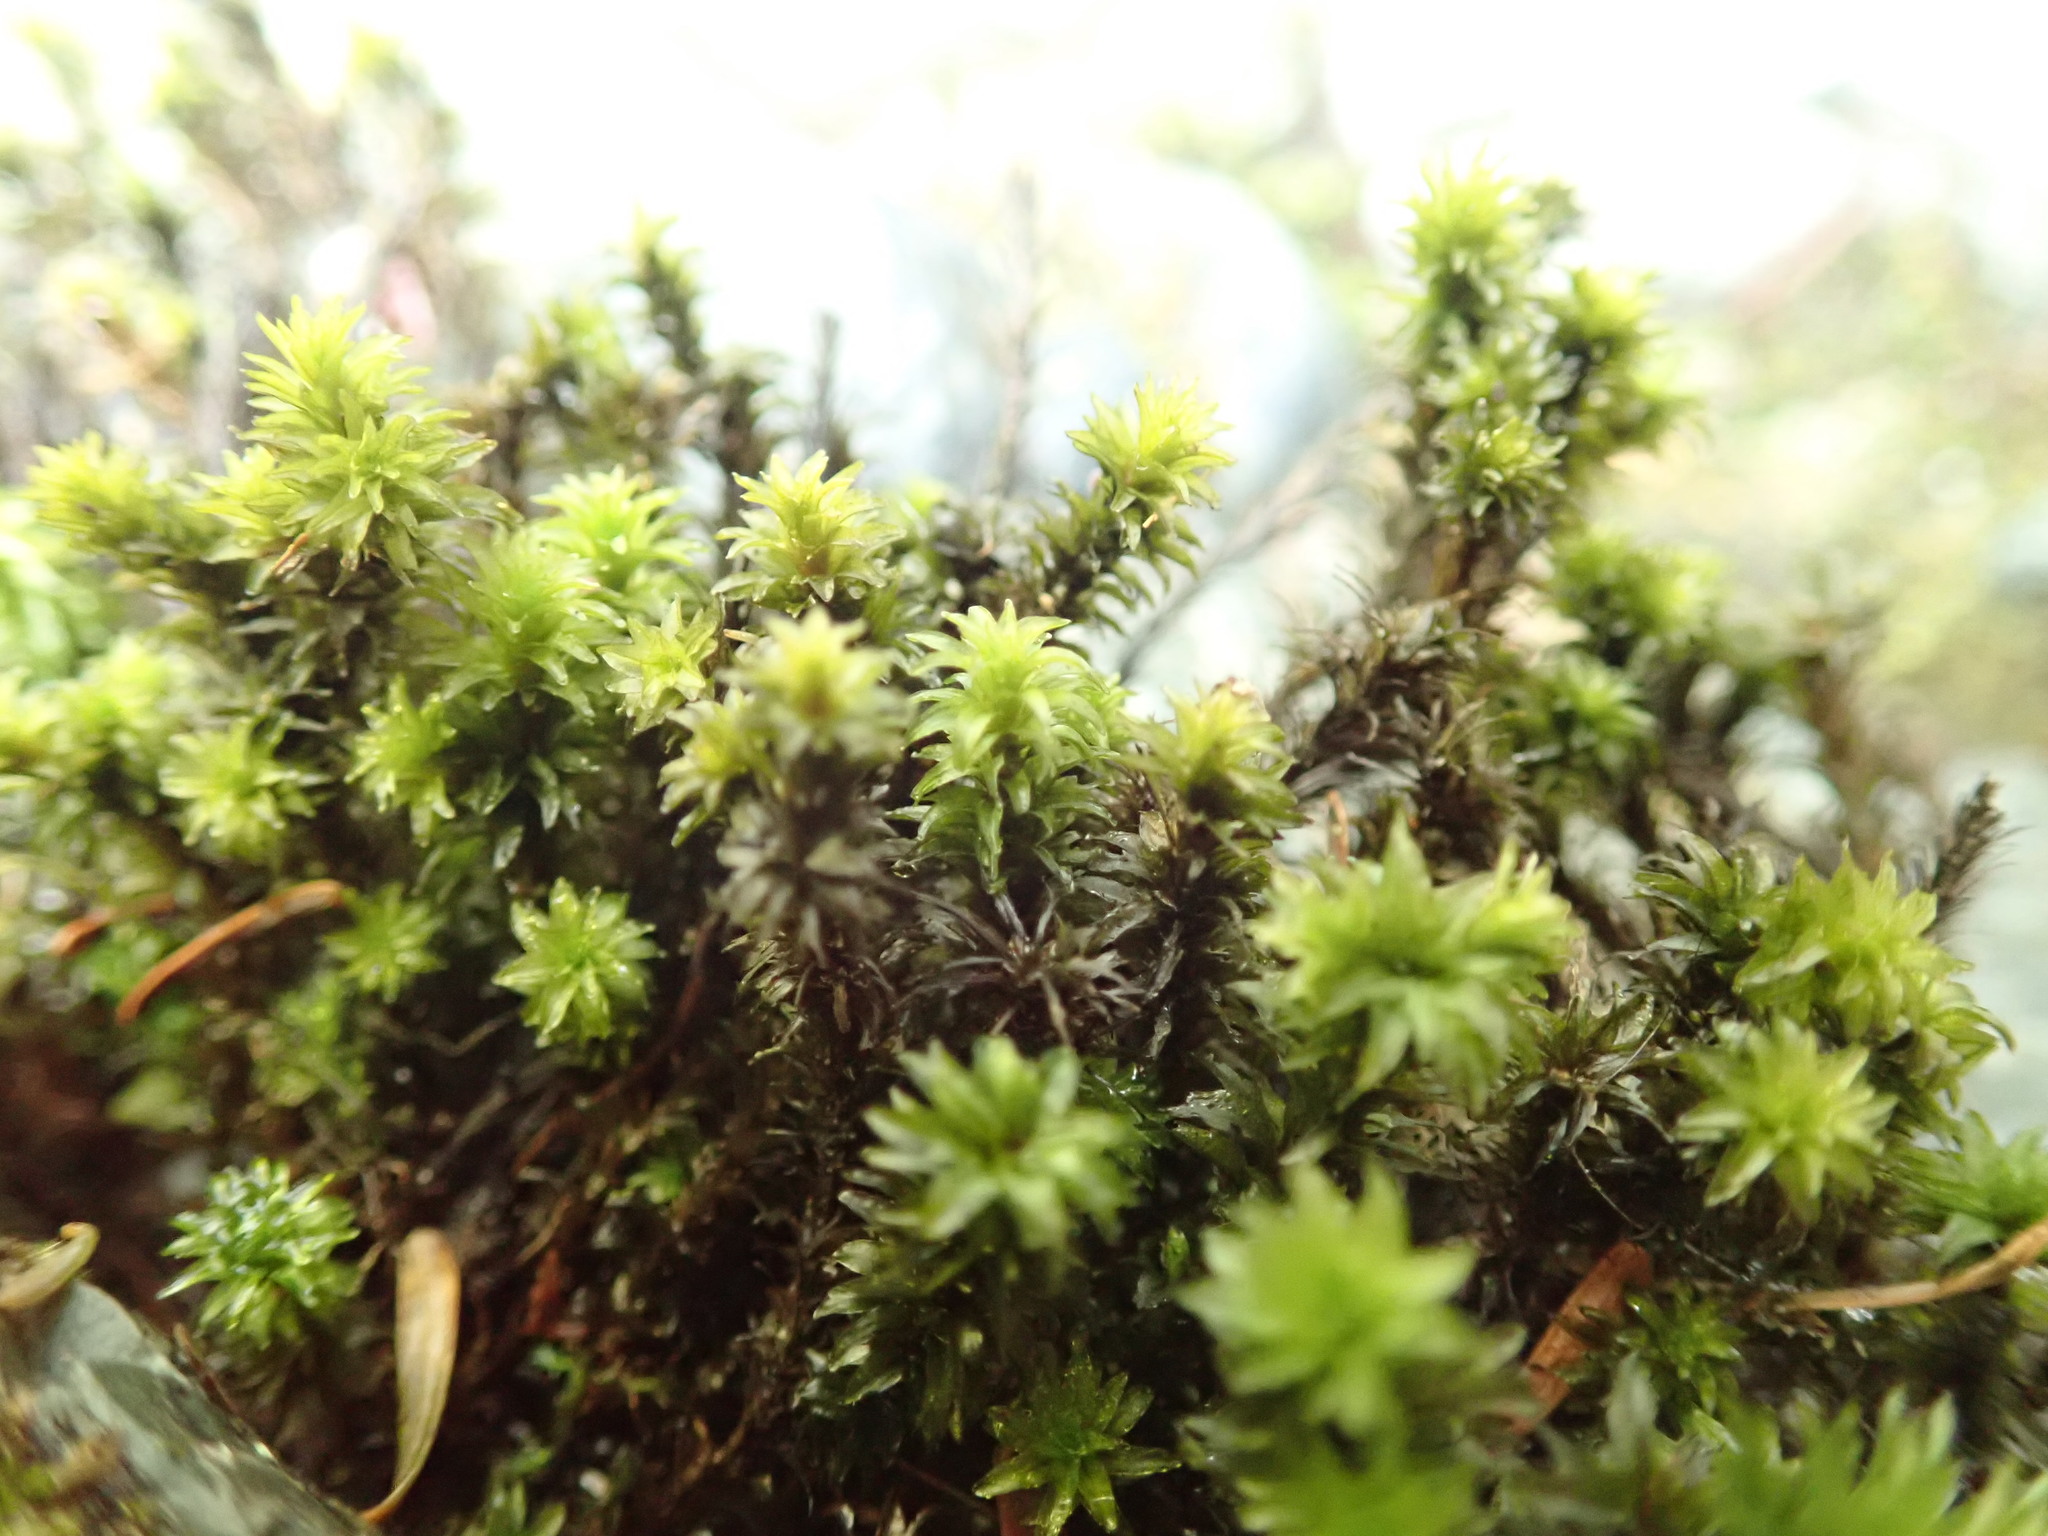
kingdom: Plantae
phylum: Bryophyta
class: Bryopsida
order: Scouleriales
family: Scouleriaceae
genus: Scouleria
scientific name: Scouleria aquatica
